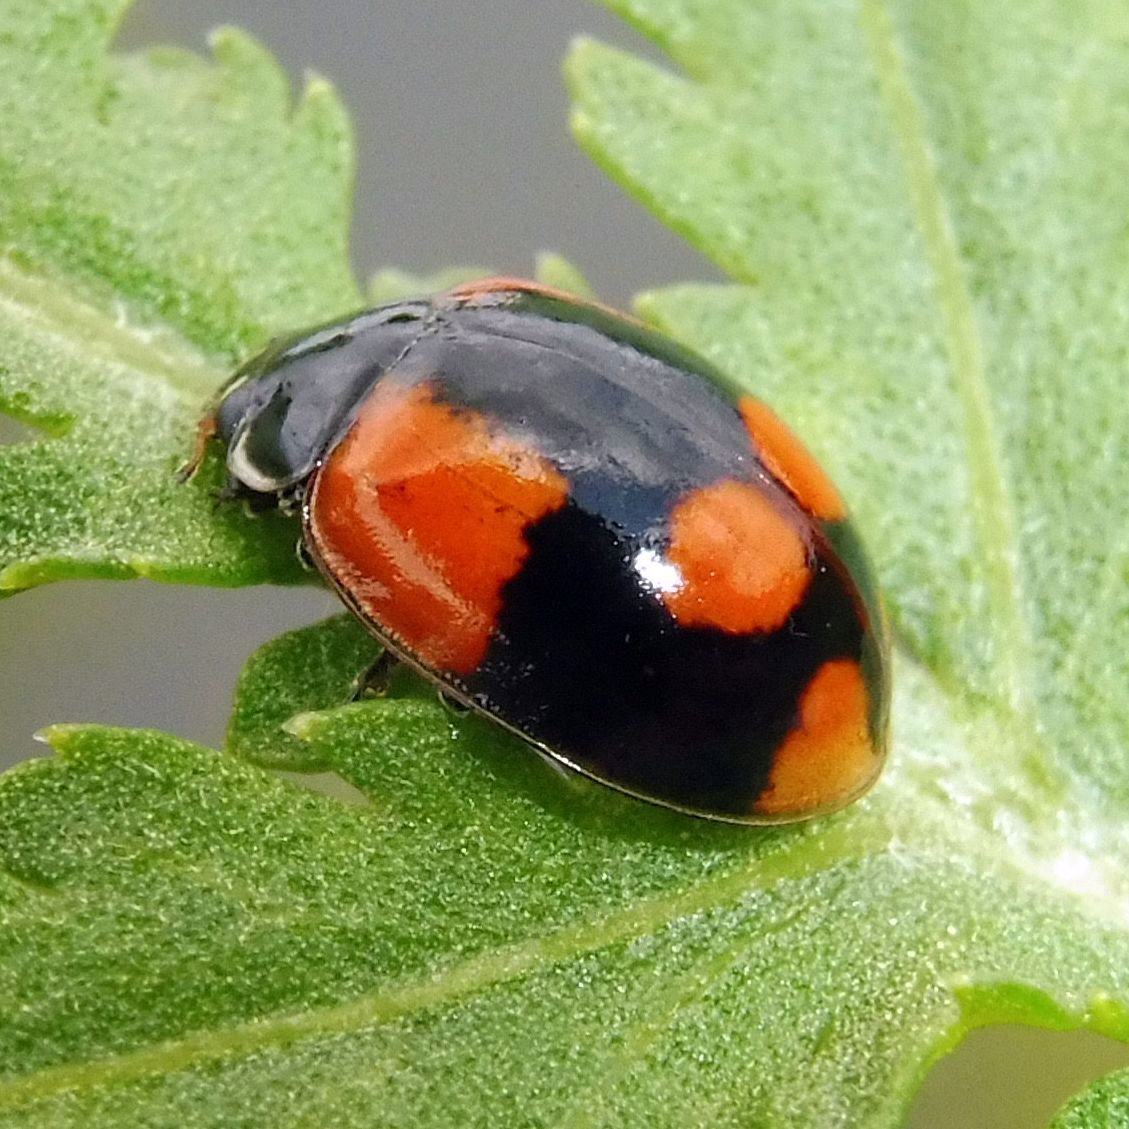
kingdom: Animalia
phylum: Arthropoda
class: Insecta
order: Coleoptera
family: Coccinellidae
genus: Adalia
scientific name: Adalia bipunctata
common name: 2-spot ladybird
